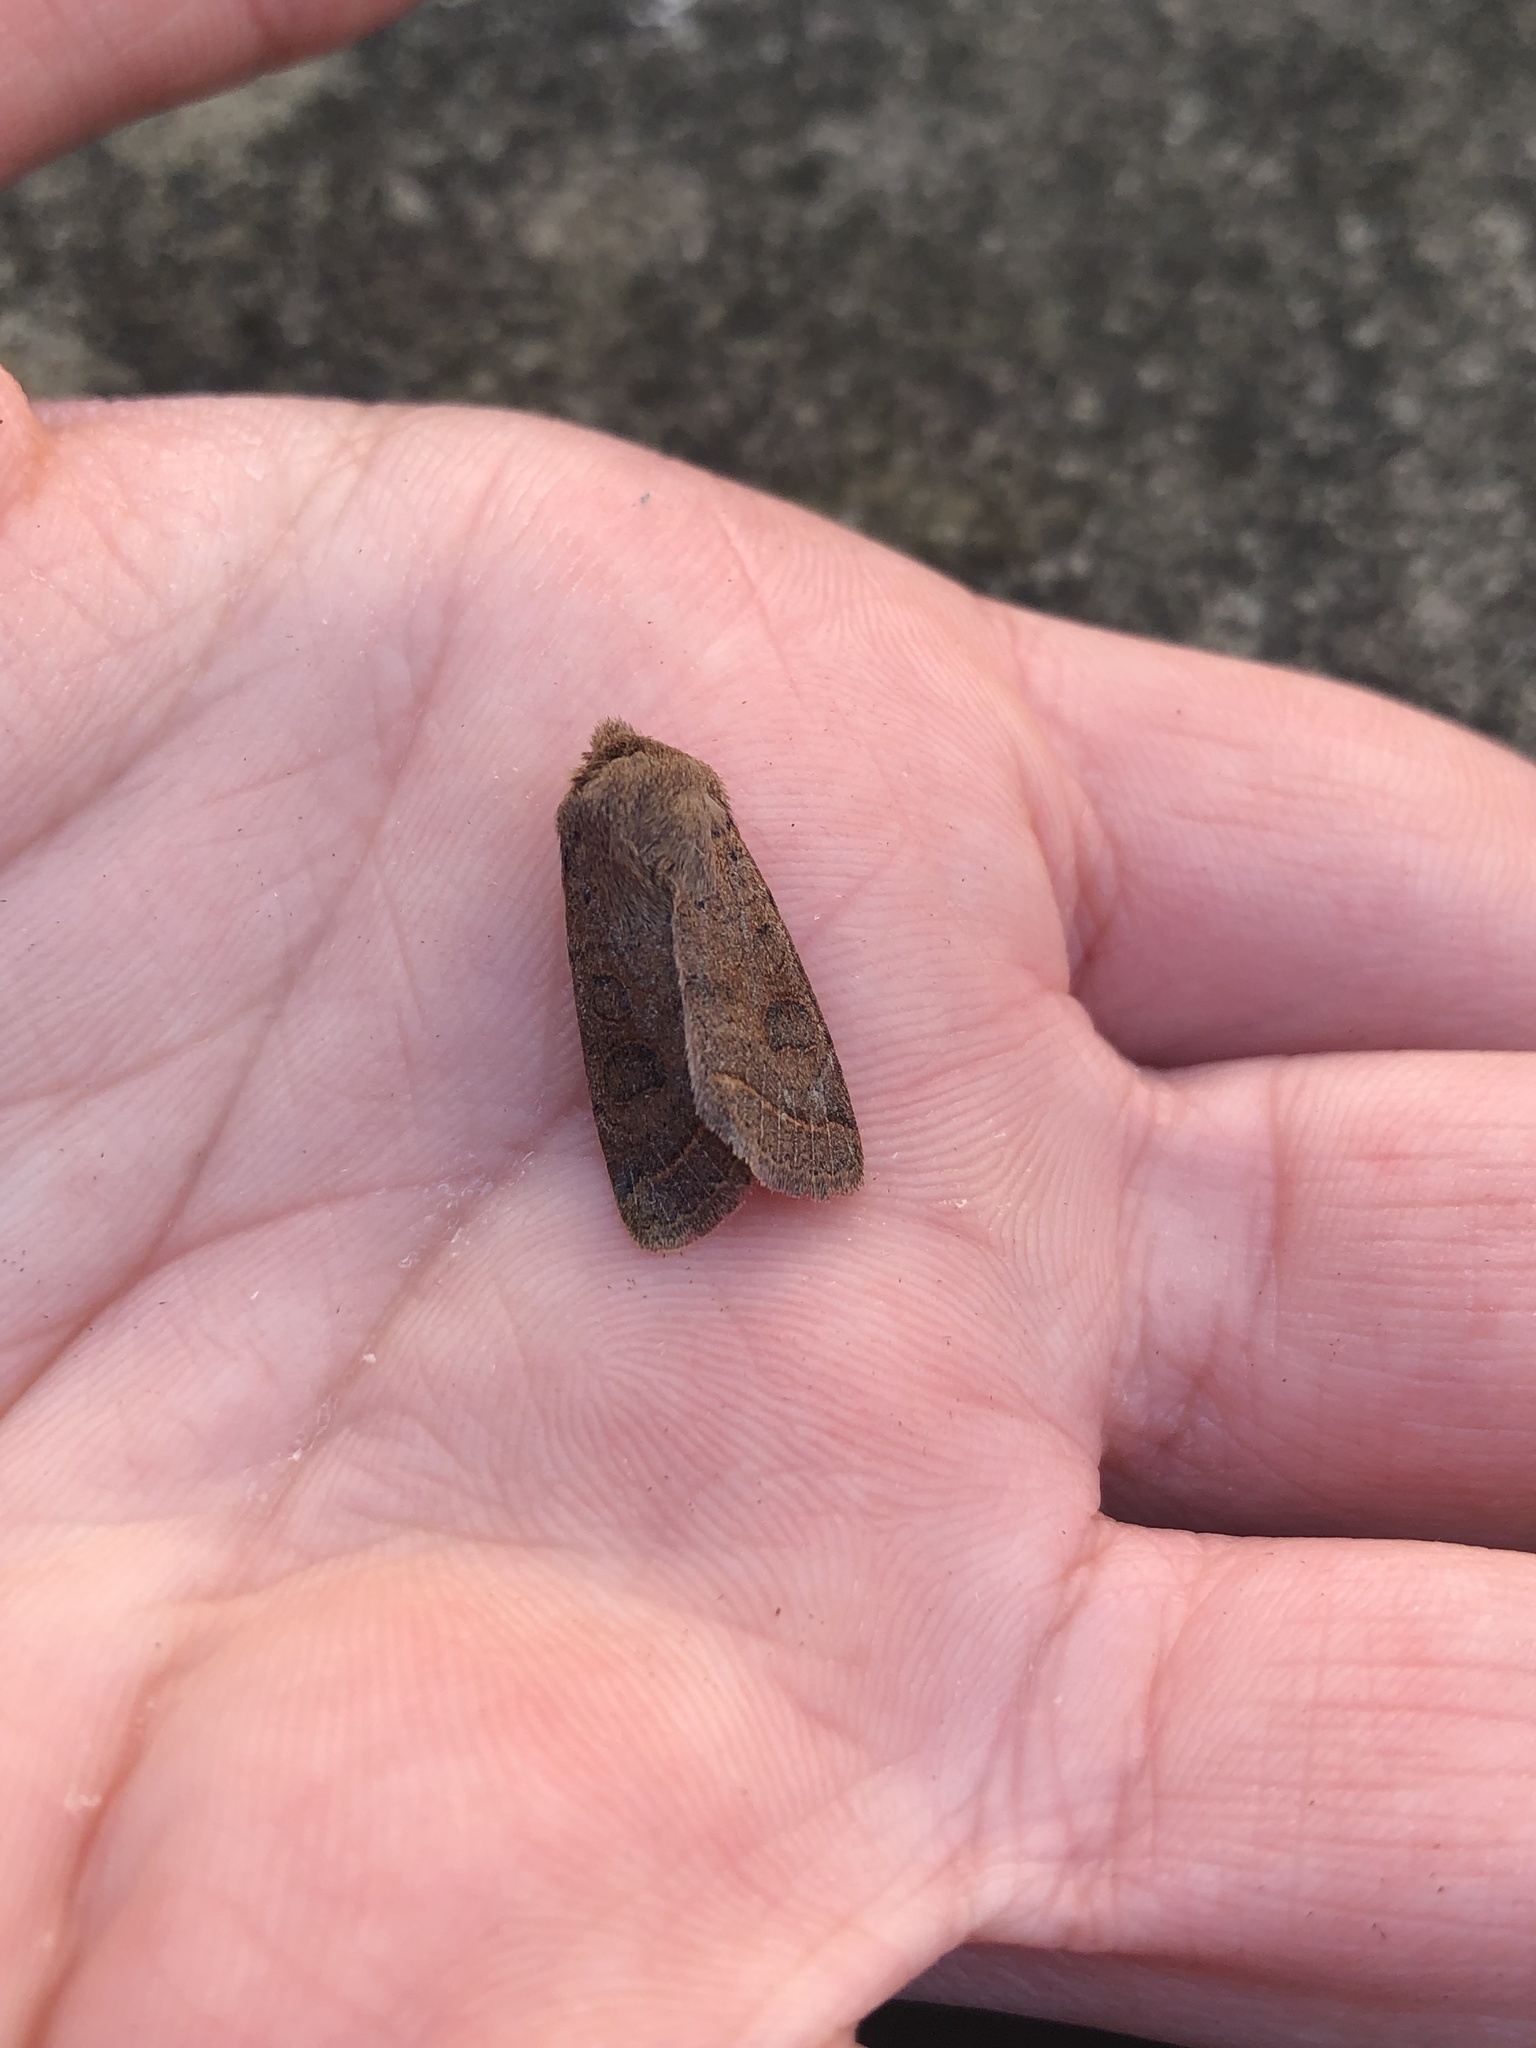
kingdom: Animalia
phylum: Arthropoda
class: Insecta
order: Lepidoptera
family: Noctuidae
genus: Orthosia
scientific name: Orthosia cerasi
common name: Common quaker
